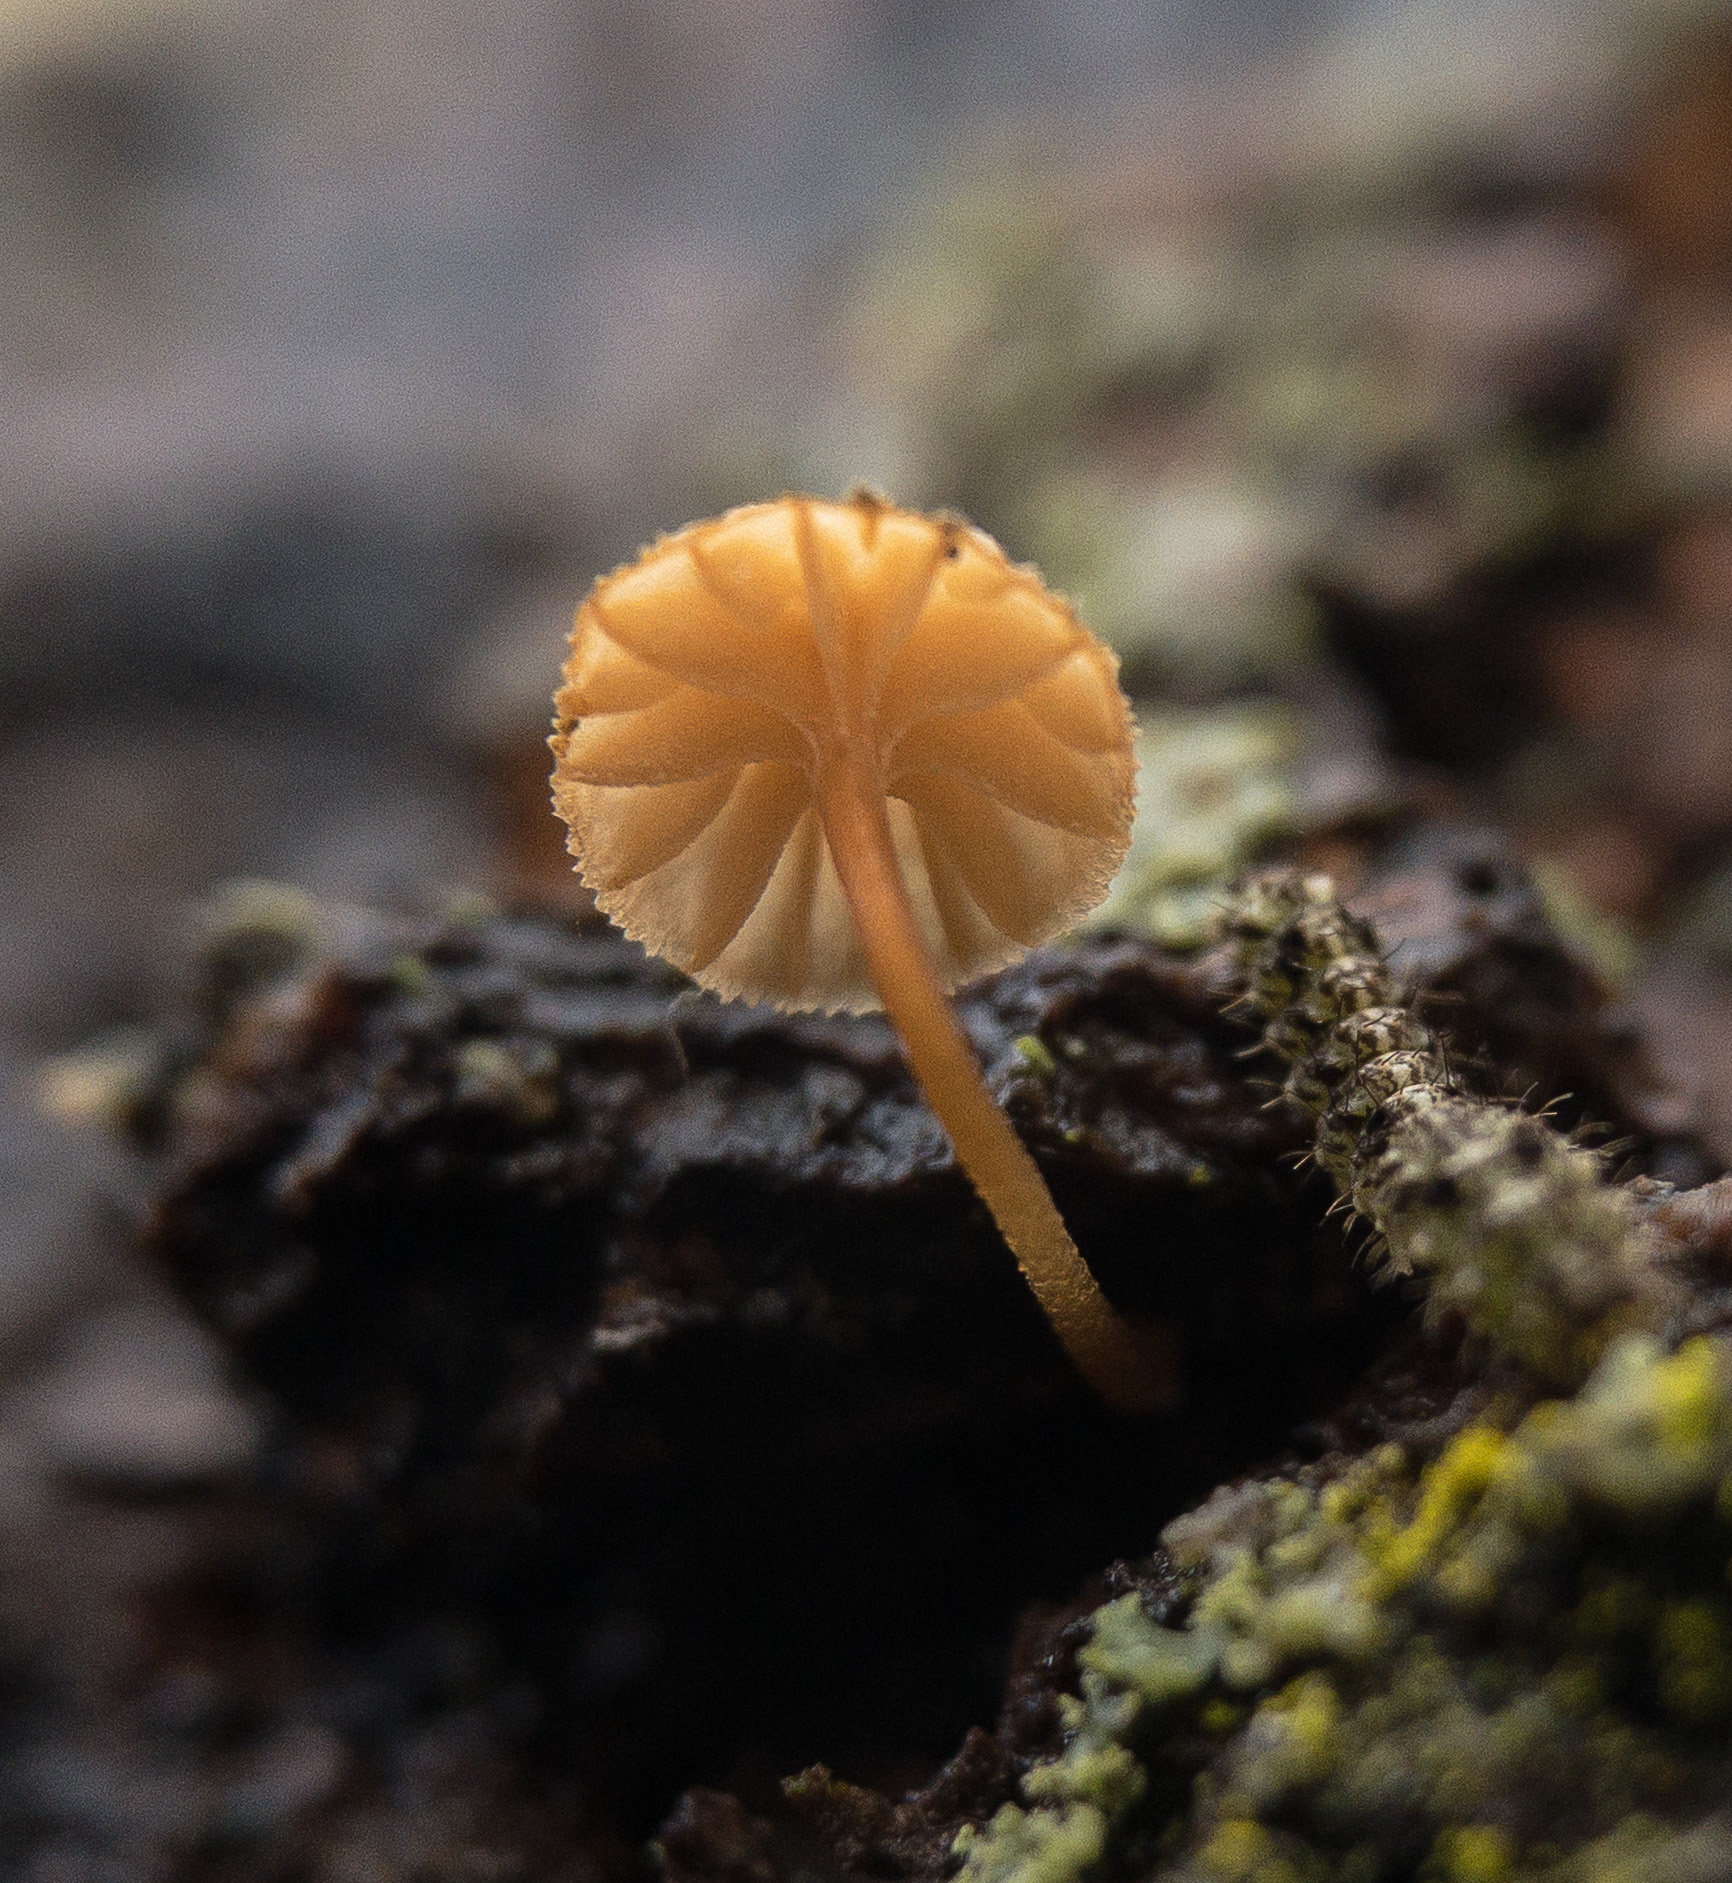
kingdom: Fungi
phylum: Basidiomycota
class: Agaricomycetes
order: Agaricales
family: Mycenaceae
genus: Mycena
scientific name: Mycena corticola
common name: Bark mycena
